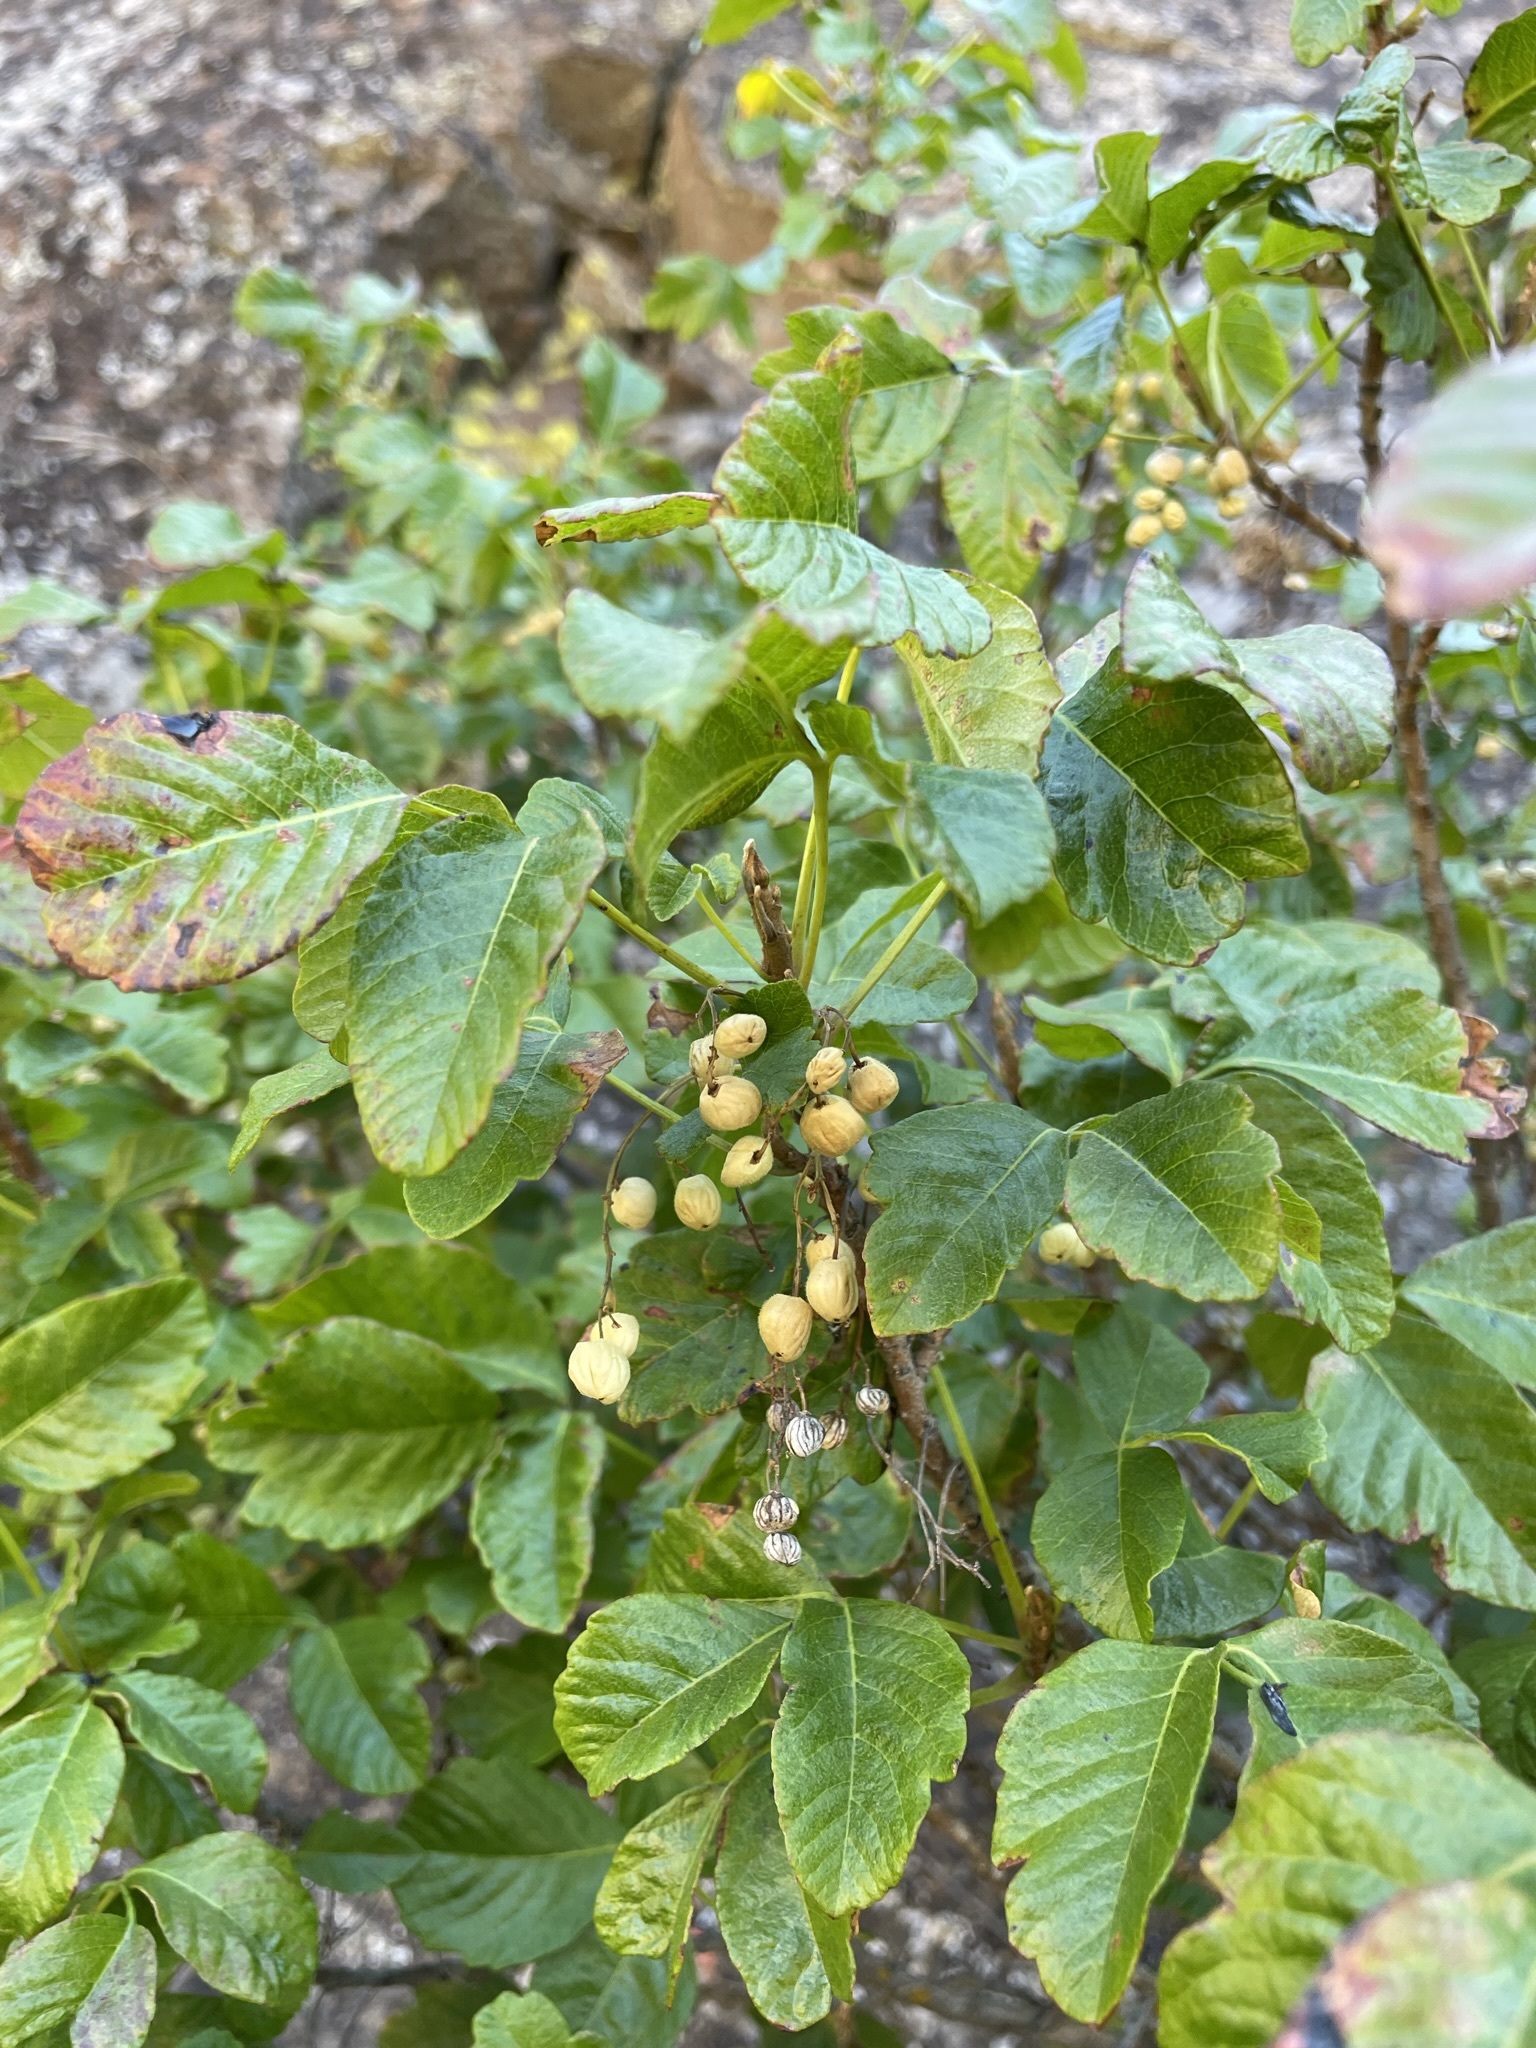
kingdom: Plantae
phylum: Tracheophyta
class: Magnoliopsida
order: Sapindales
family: Anacardiaceae
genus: Toxicodendron
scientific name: Toxicodendron diversilobum
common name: Pacific poison-oak
